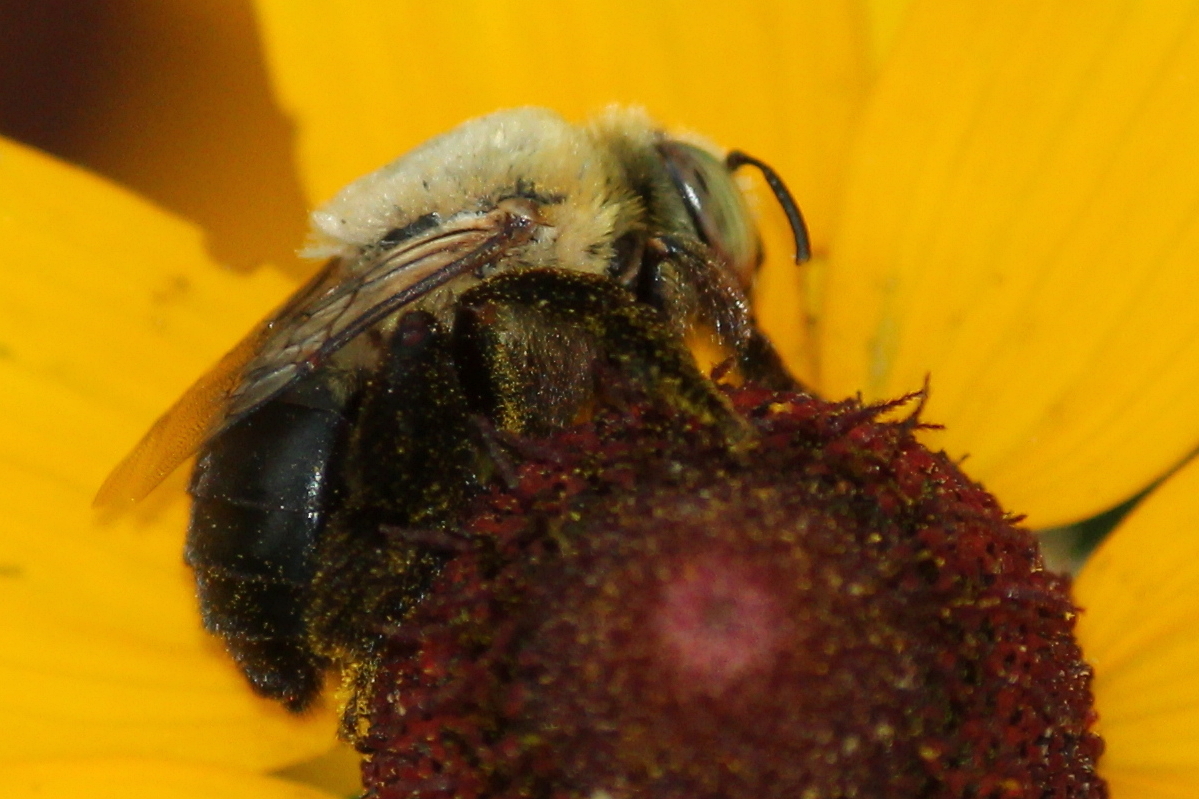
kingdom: Animalia
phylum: Arthropoda
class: Insecta
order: Hymenoptera
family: Apidae
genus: Centris
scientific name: Centris lanosa
